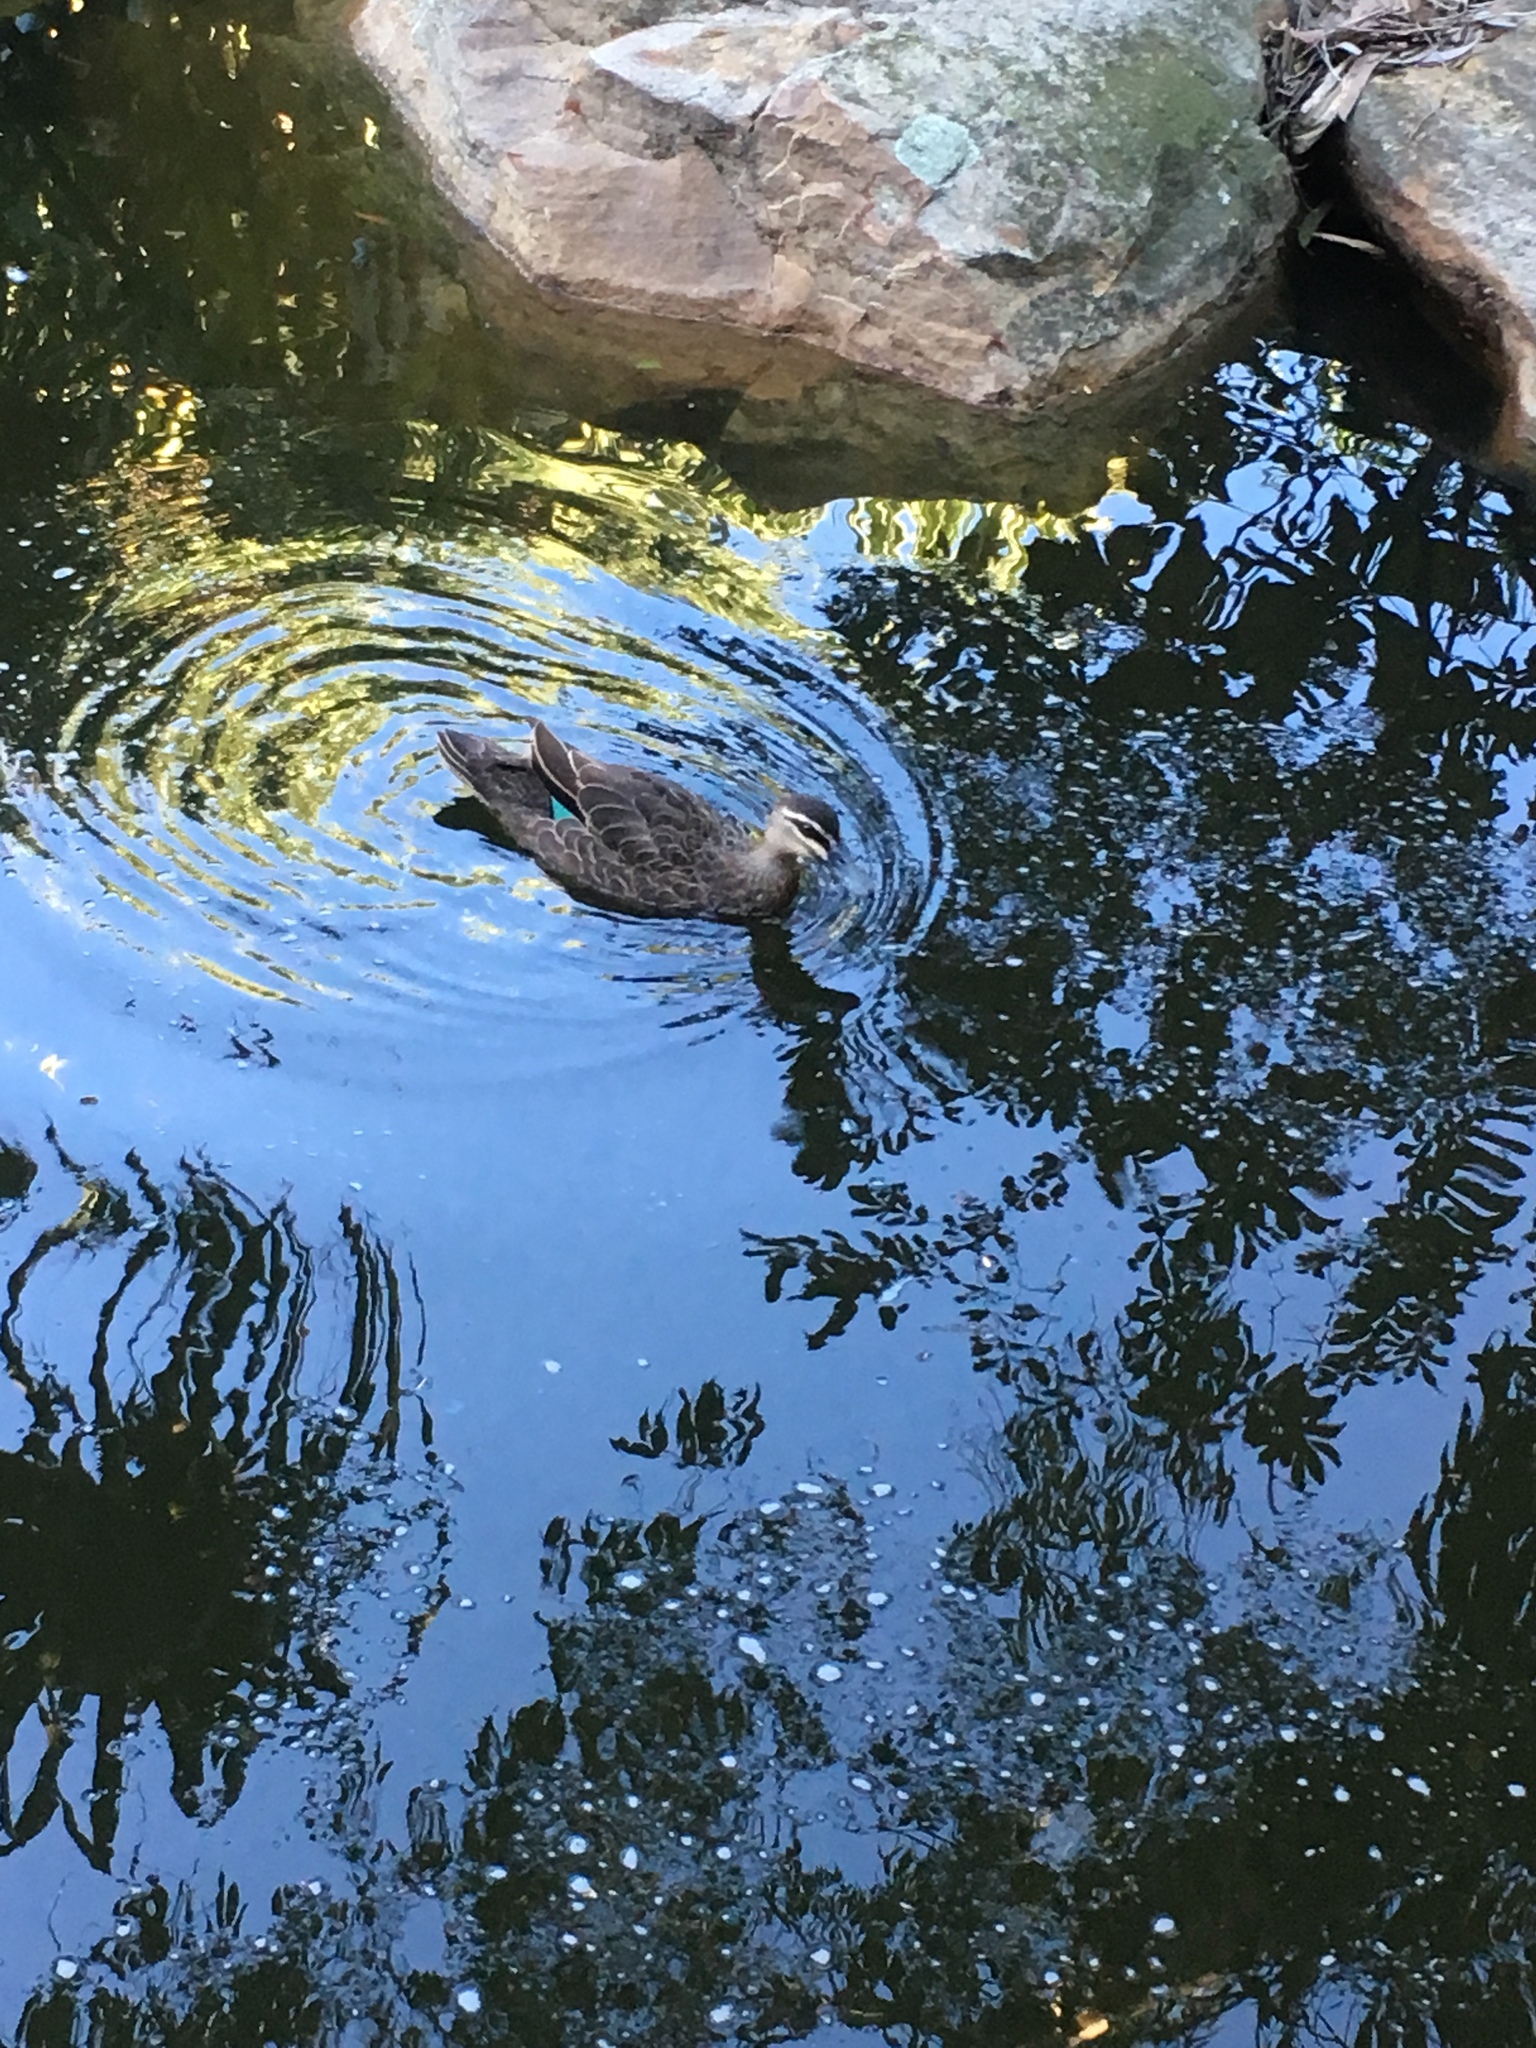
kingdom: Animalia
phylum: Chordata
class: Aves
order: Anseriformes
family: Anatidae
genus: Anas
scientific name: Anas superciliosa
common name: Pacific black duck
